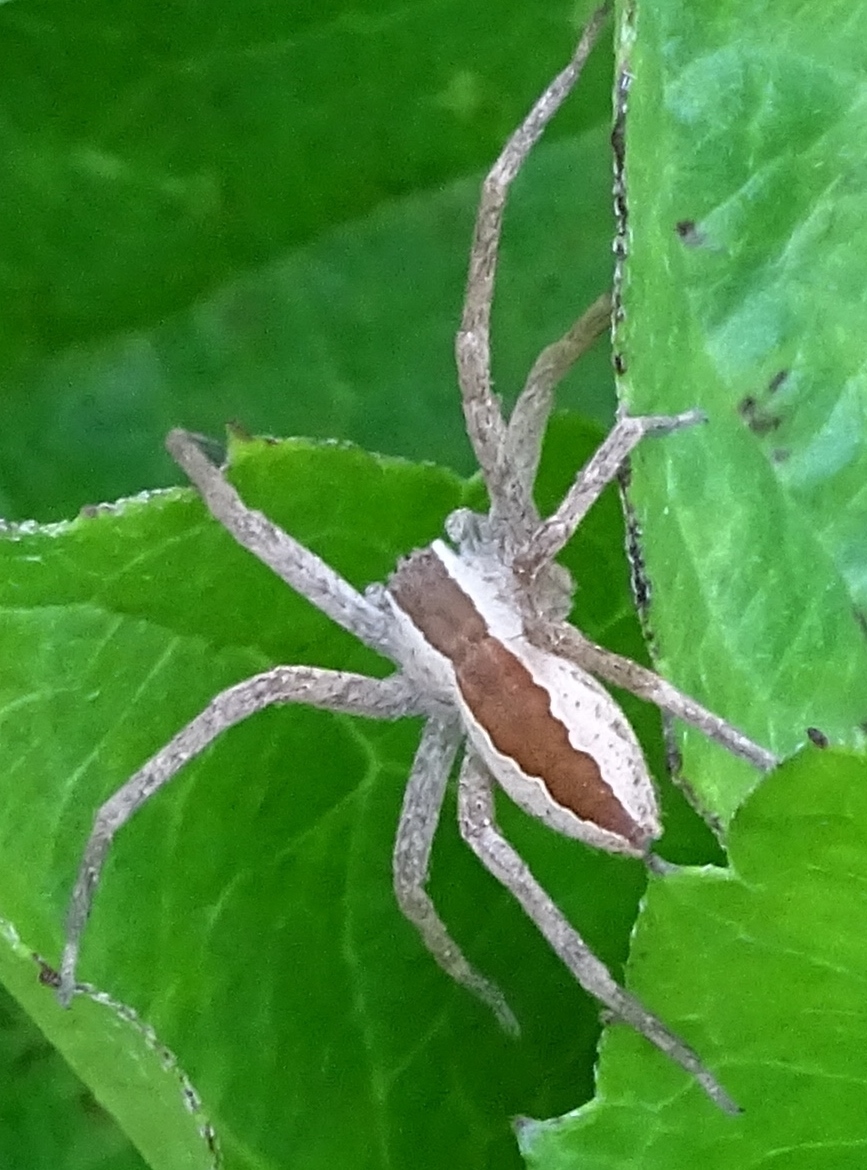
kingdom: Animalia
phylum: Arthropoda
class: Arachnida
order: Araneae
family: Pisauridae
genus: Pisaurina
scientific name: Pisaurina mira
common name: American nursery web spider
